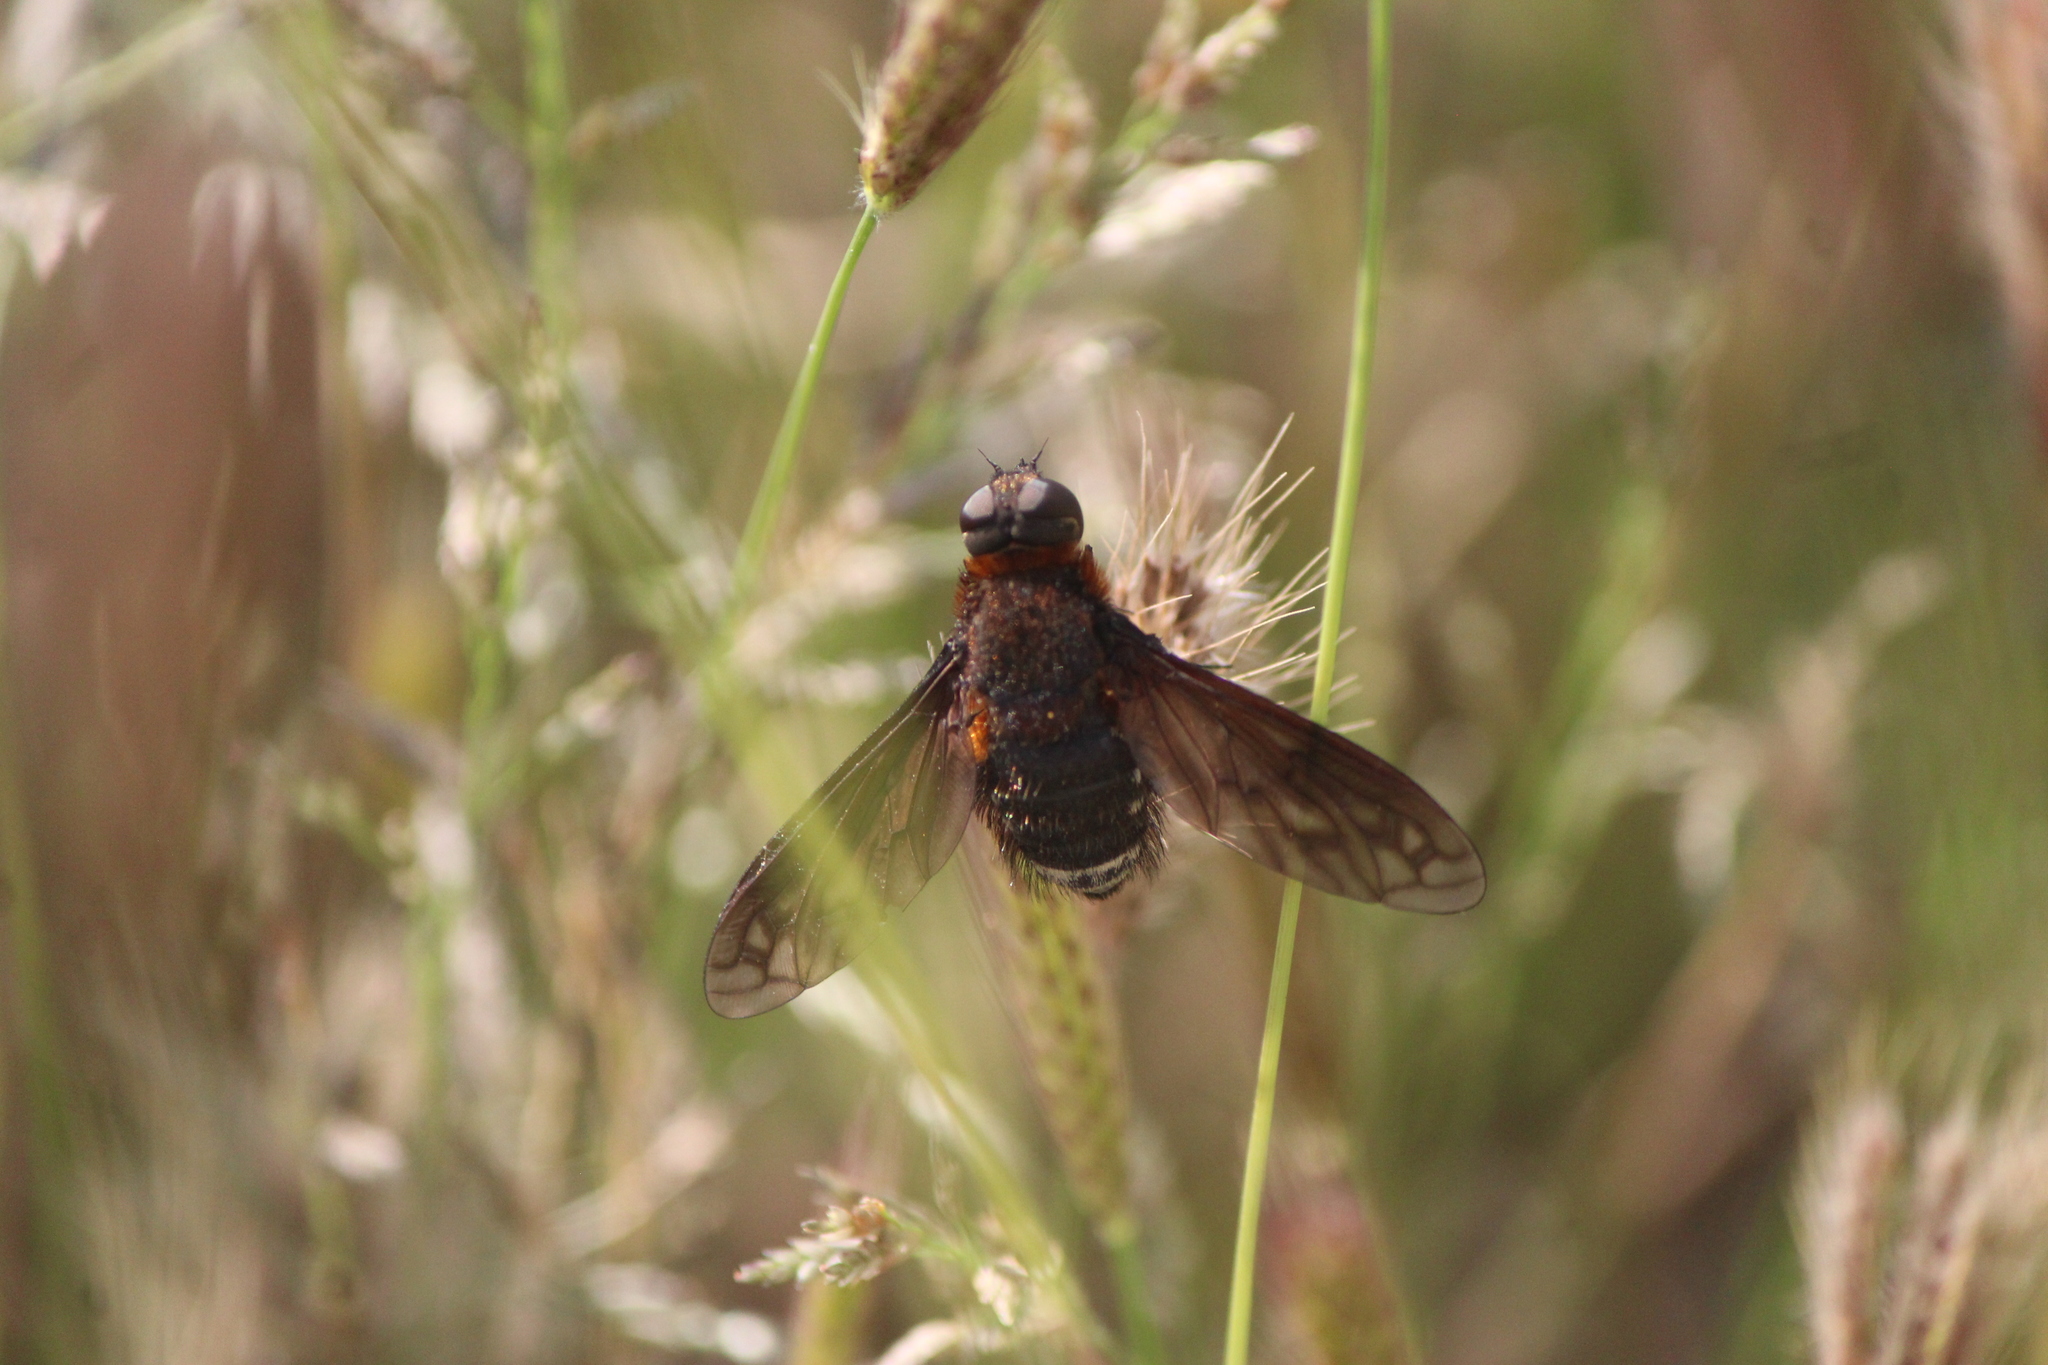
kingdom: Animalia
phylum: Arthropoda
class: Insecta
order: Diptera
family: Bombyliidae
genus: Nyia
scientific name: Nyia orcus
